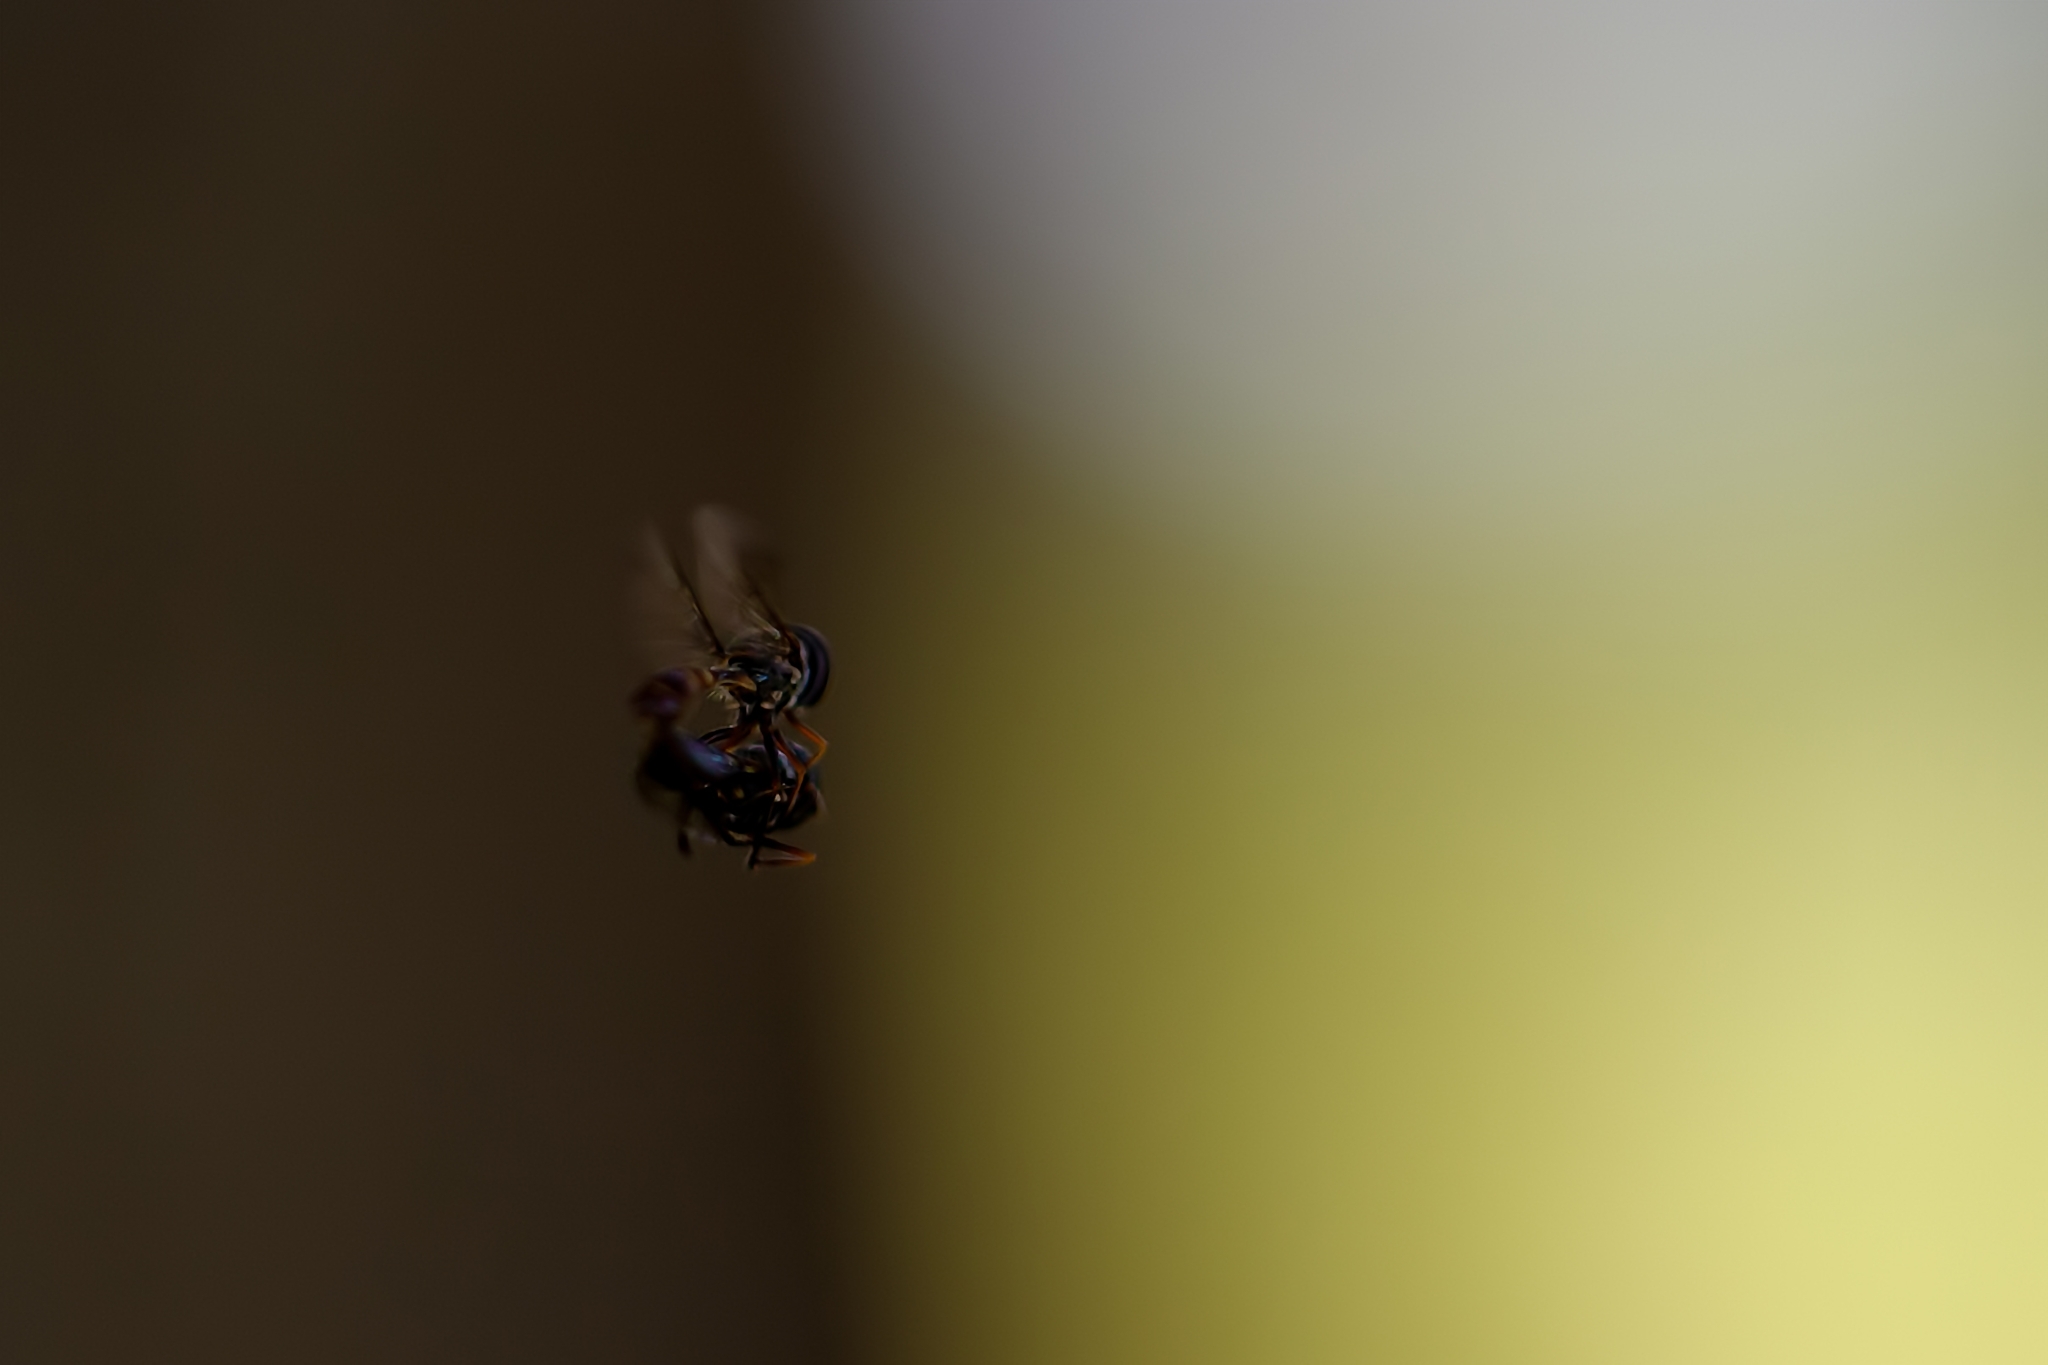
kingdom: Animalia
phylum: Arthropoda
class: Insecta
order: Diptera
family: Syrphidae
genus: Dioprosopa
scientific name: Dioprosopa clavatus
